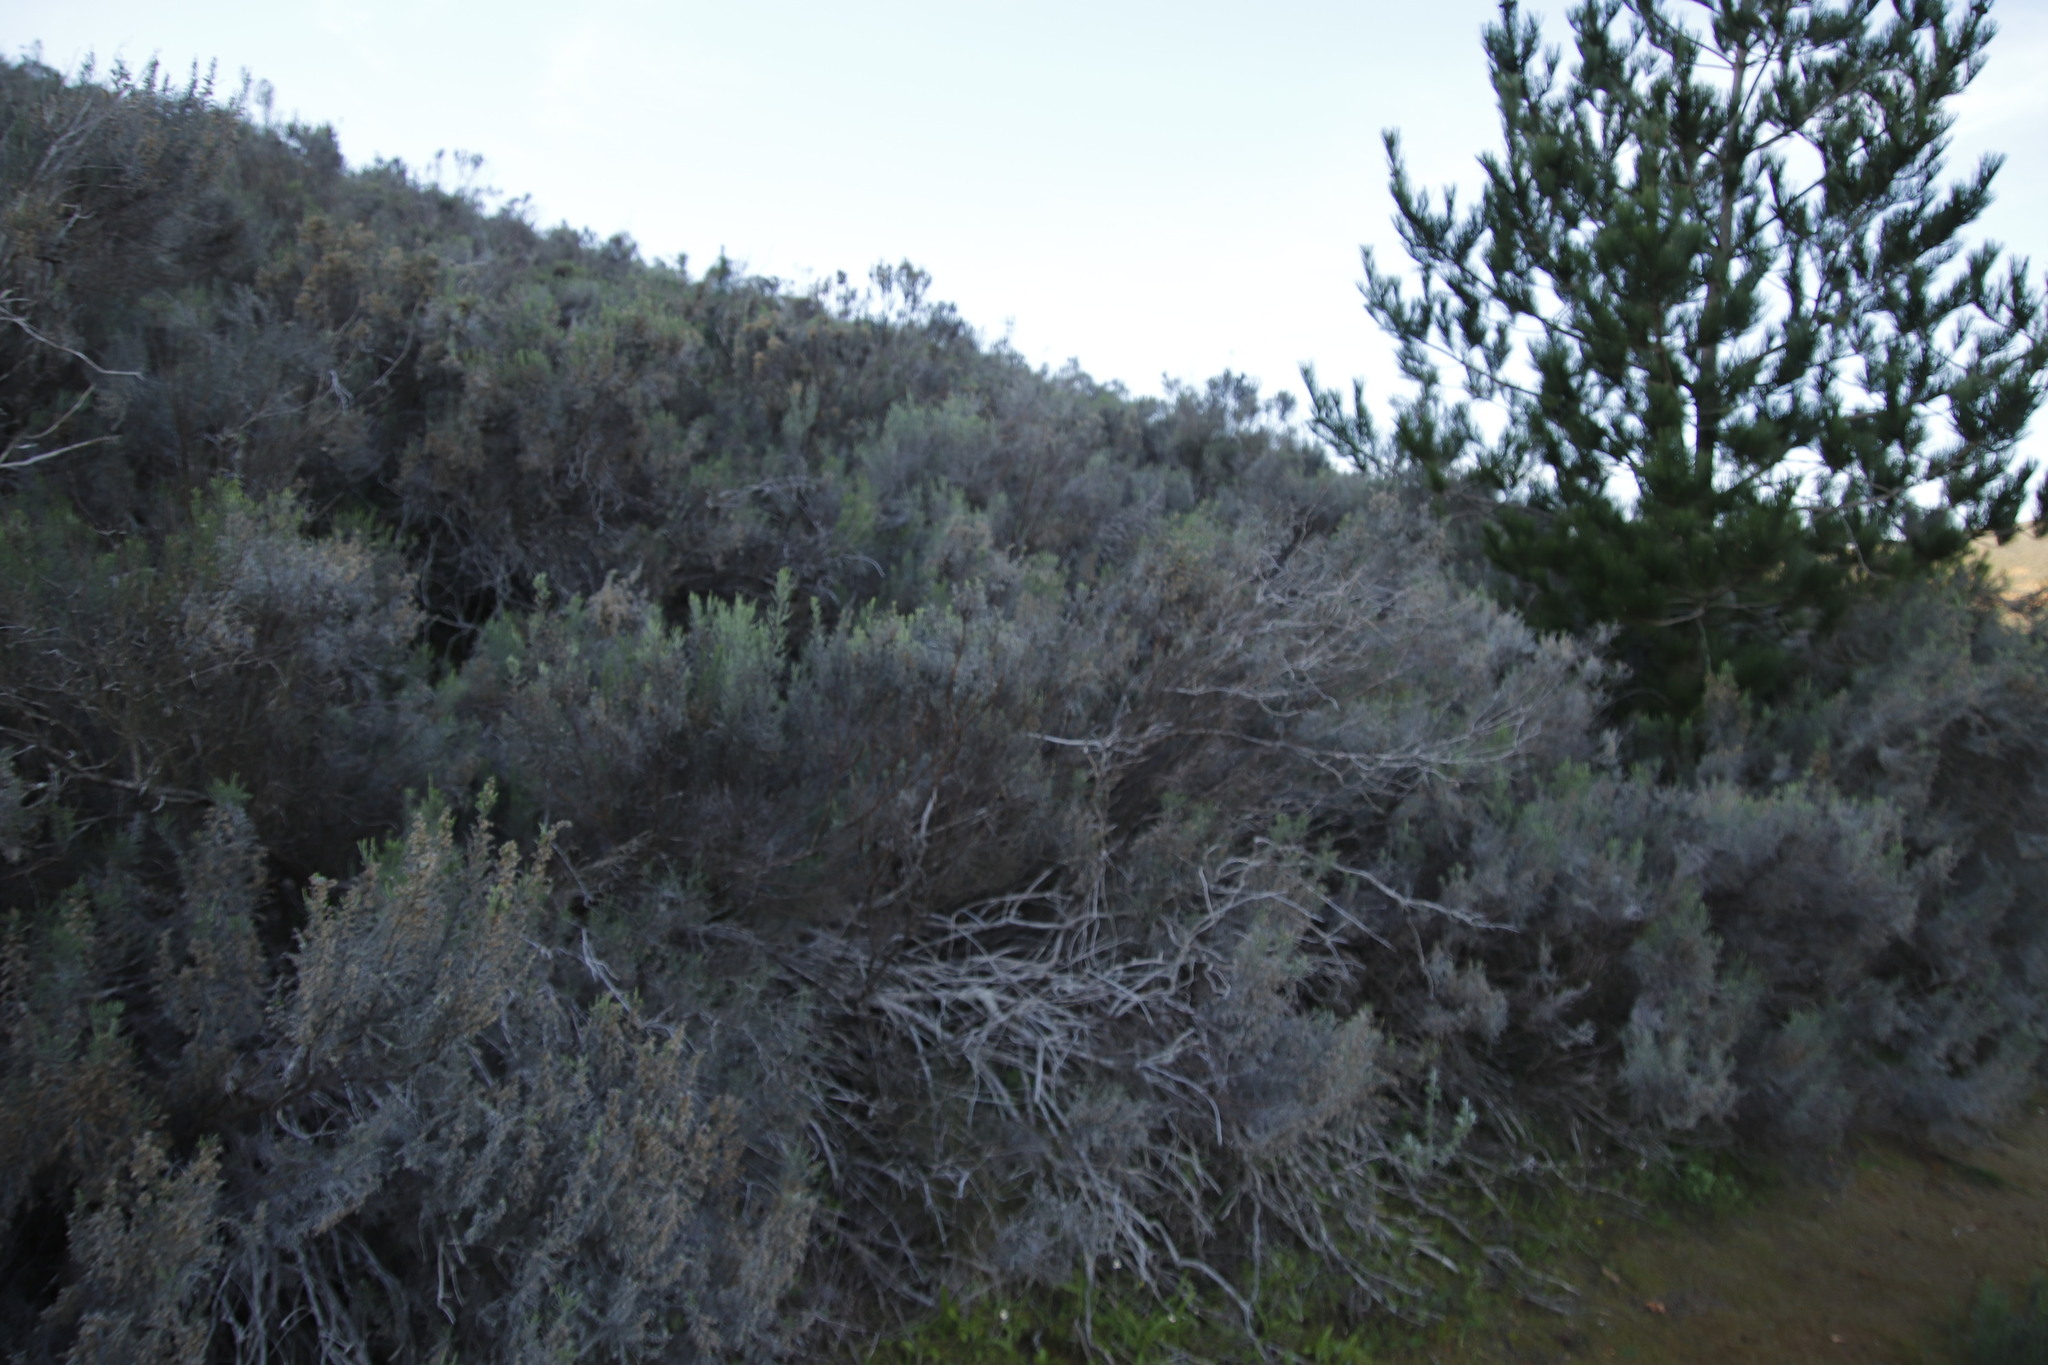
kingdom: Plantae
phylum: Tracheophyta
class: Magnoliopsida
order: Asterales
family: Asteraceae
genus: Dicerothamnus
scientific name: Dicerothamnus rhinocerotis
